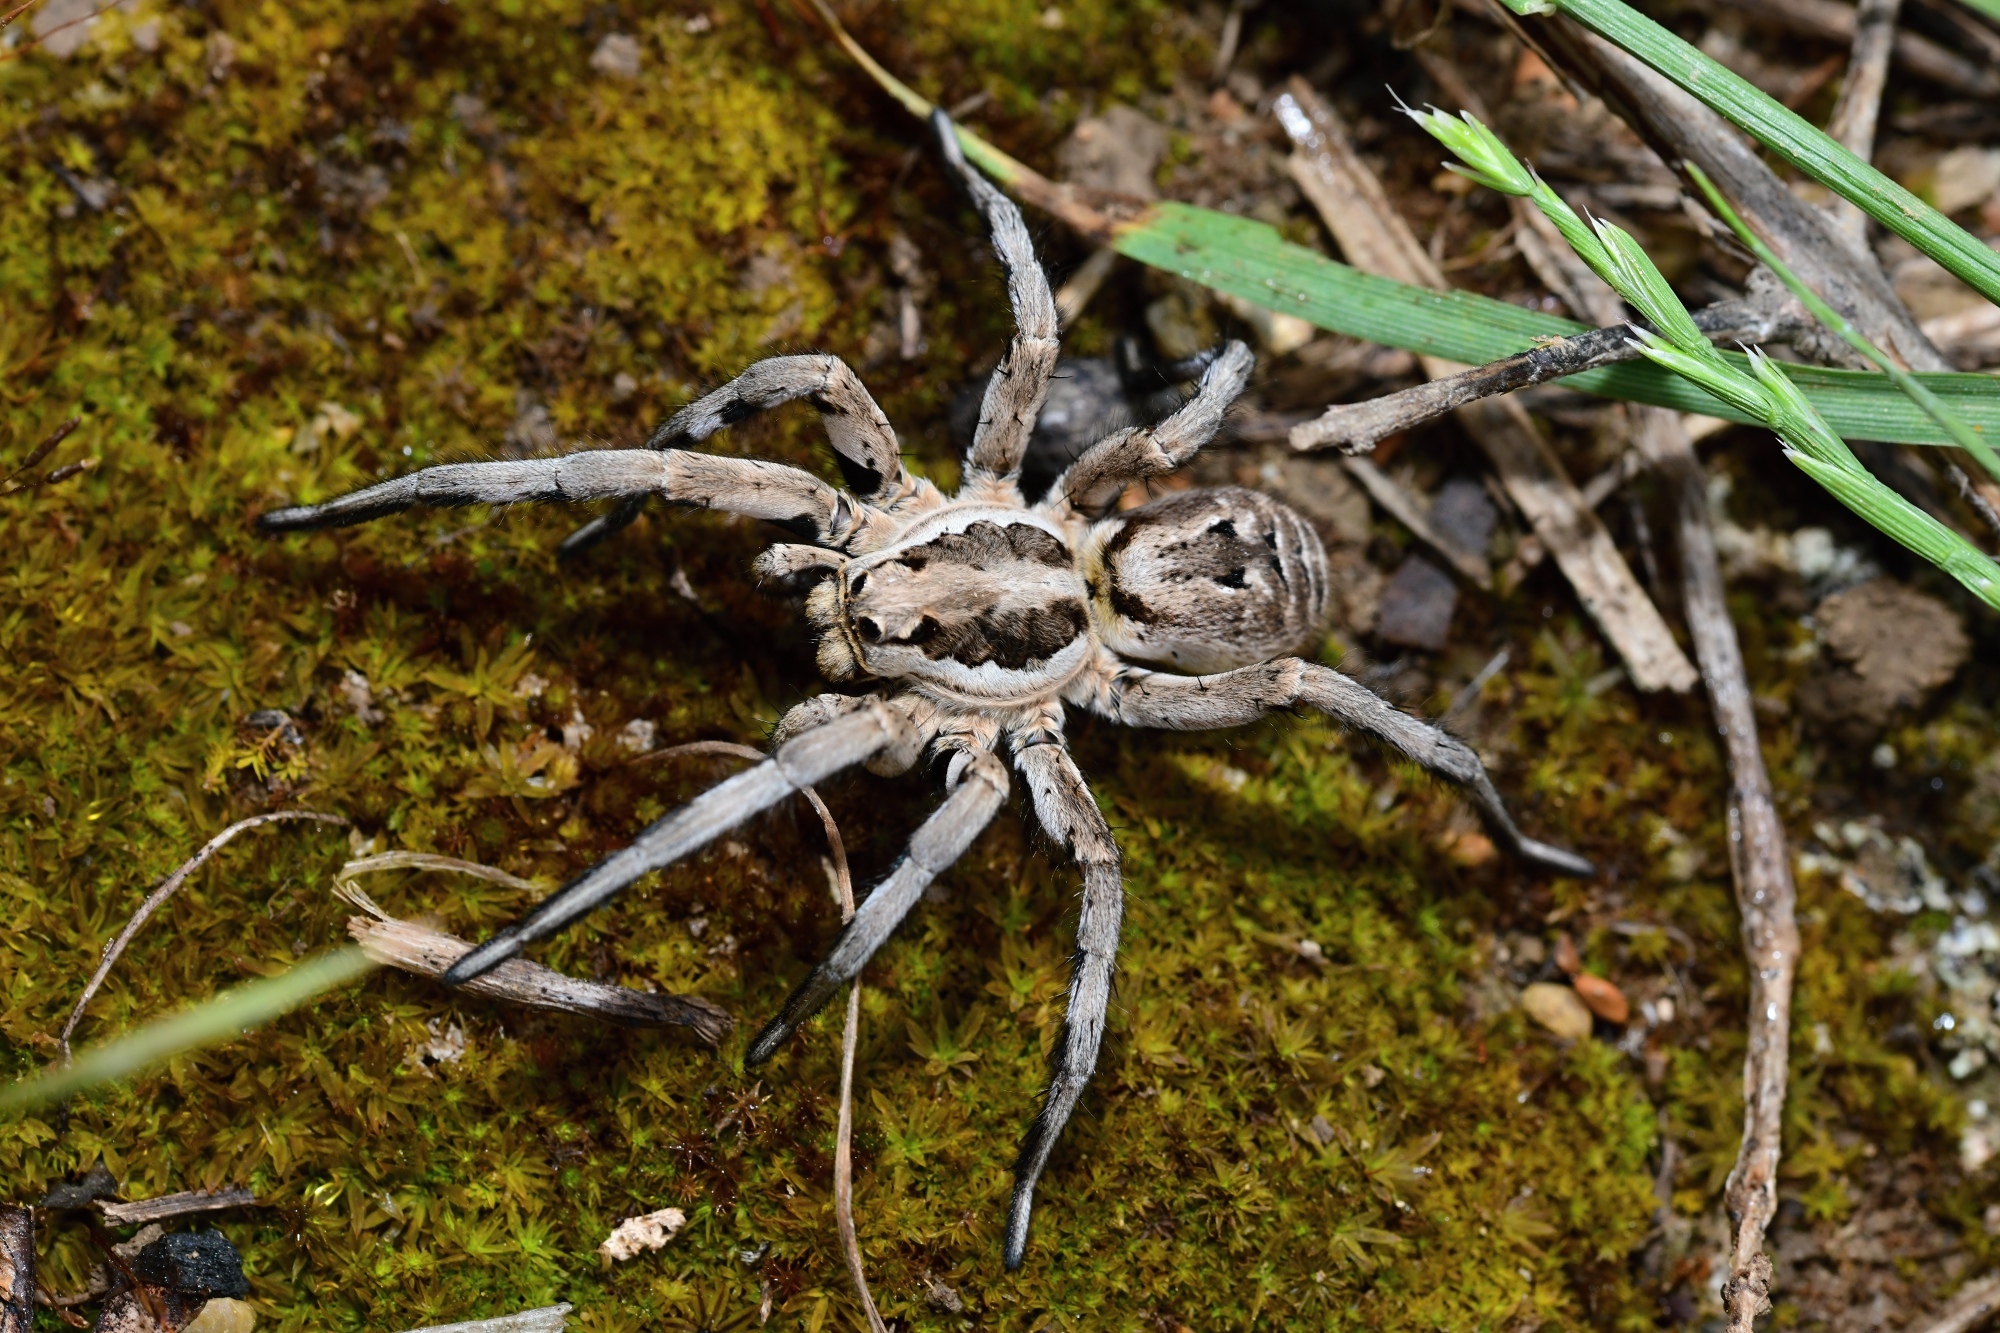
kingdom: Animalia
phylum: Arthropoda
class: Arachnida
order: Araneae
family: Lycosidae
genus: Lycosa
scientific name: Lycosa praegrandis
